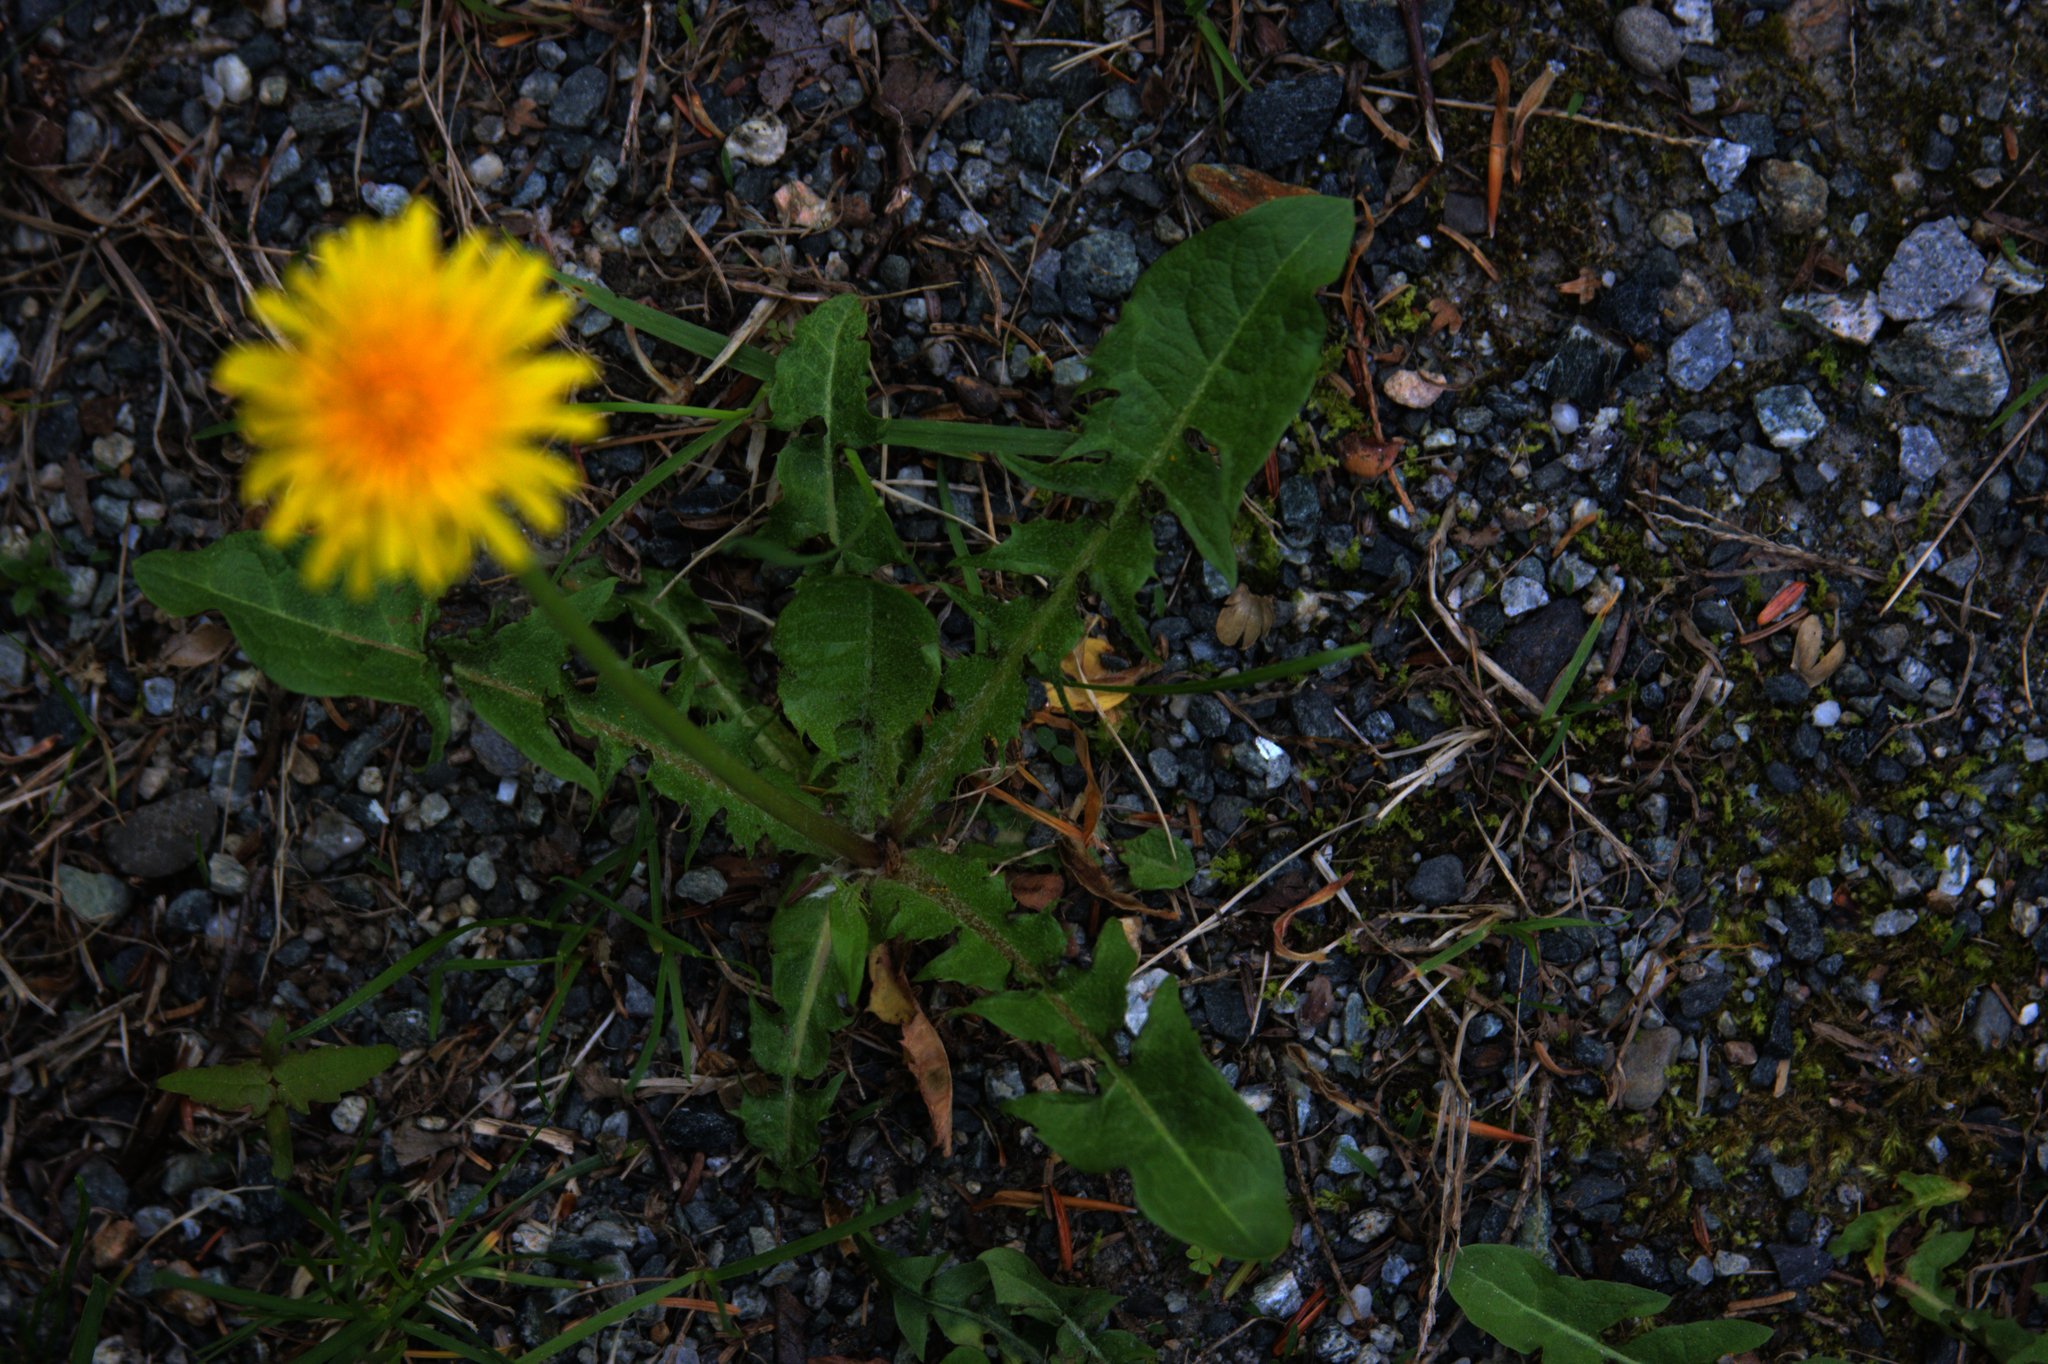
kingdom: Plantae
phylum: Tracheophyta
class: Magnoliopsida
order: Asterales
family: Asteraceae
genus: Taraxacum
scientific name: Taraxacum officinale
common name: Common dandelion
